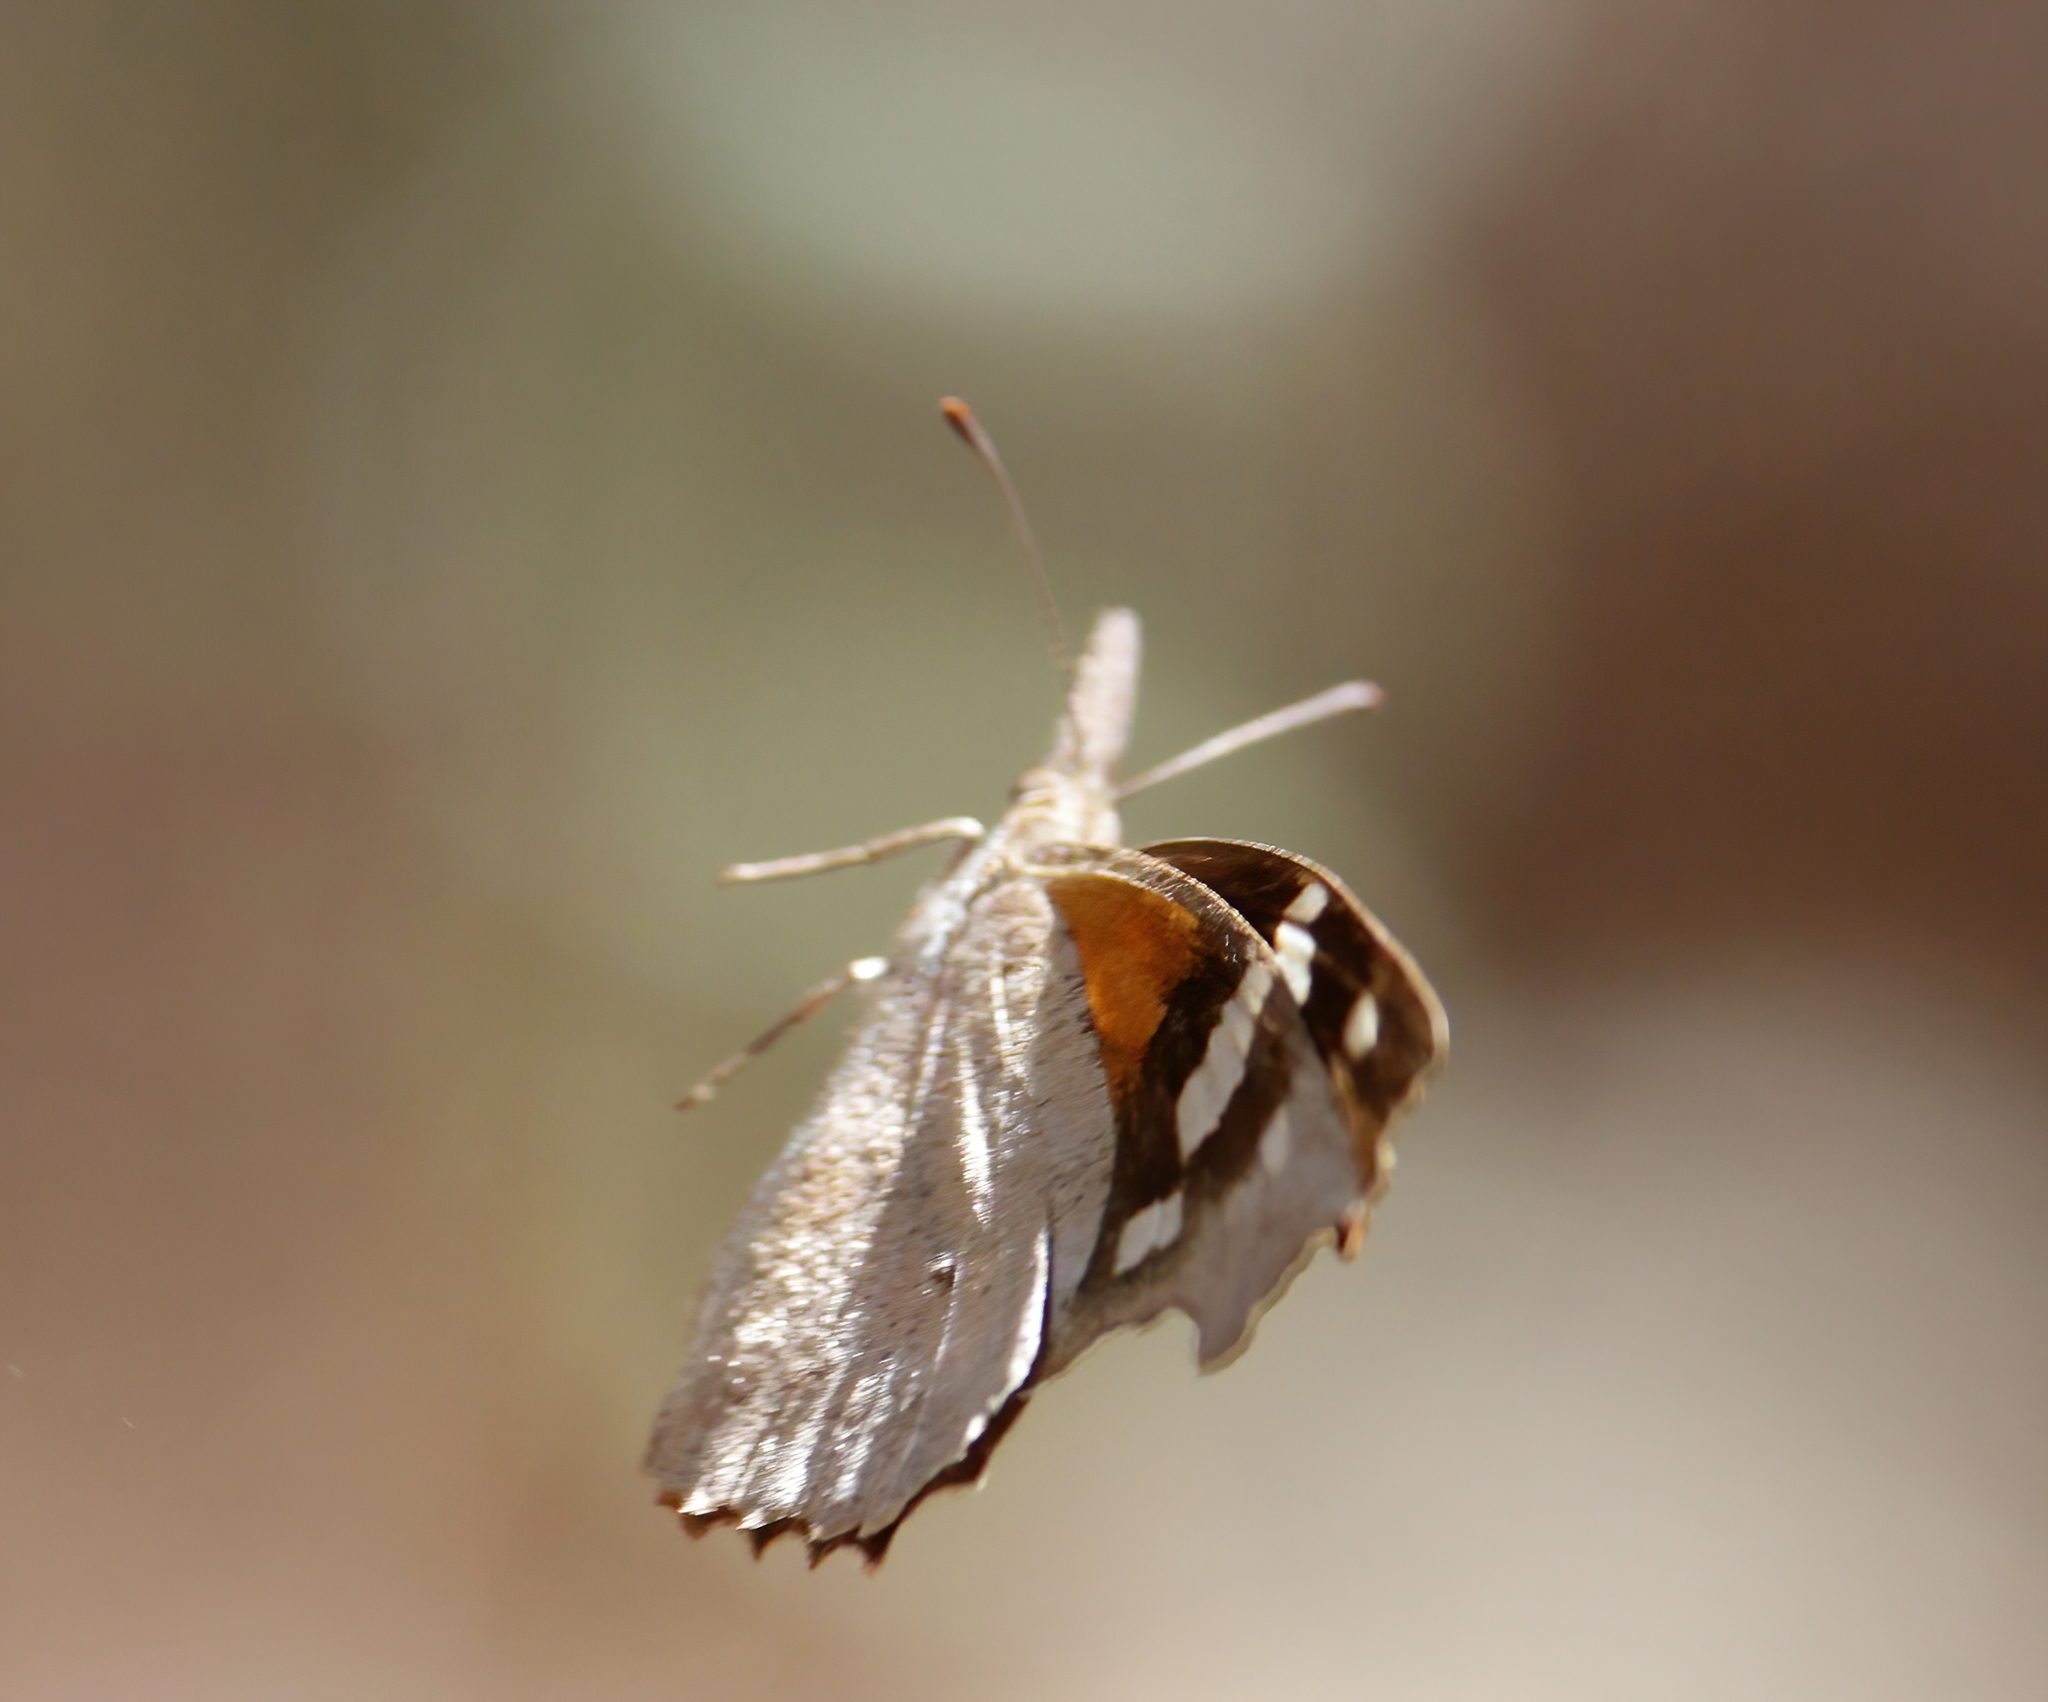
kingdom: Animalia
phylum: Arthropoda
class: Insecta
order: Lepidoptera
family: Nymphalidae
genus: Libytheana
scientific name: Libytheana carinenta
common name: American snout
